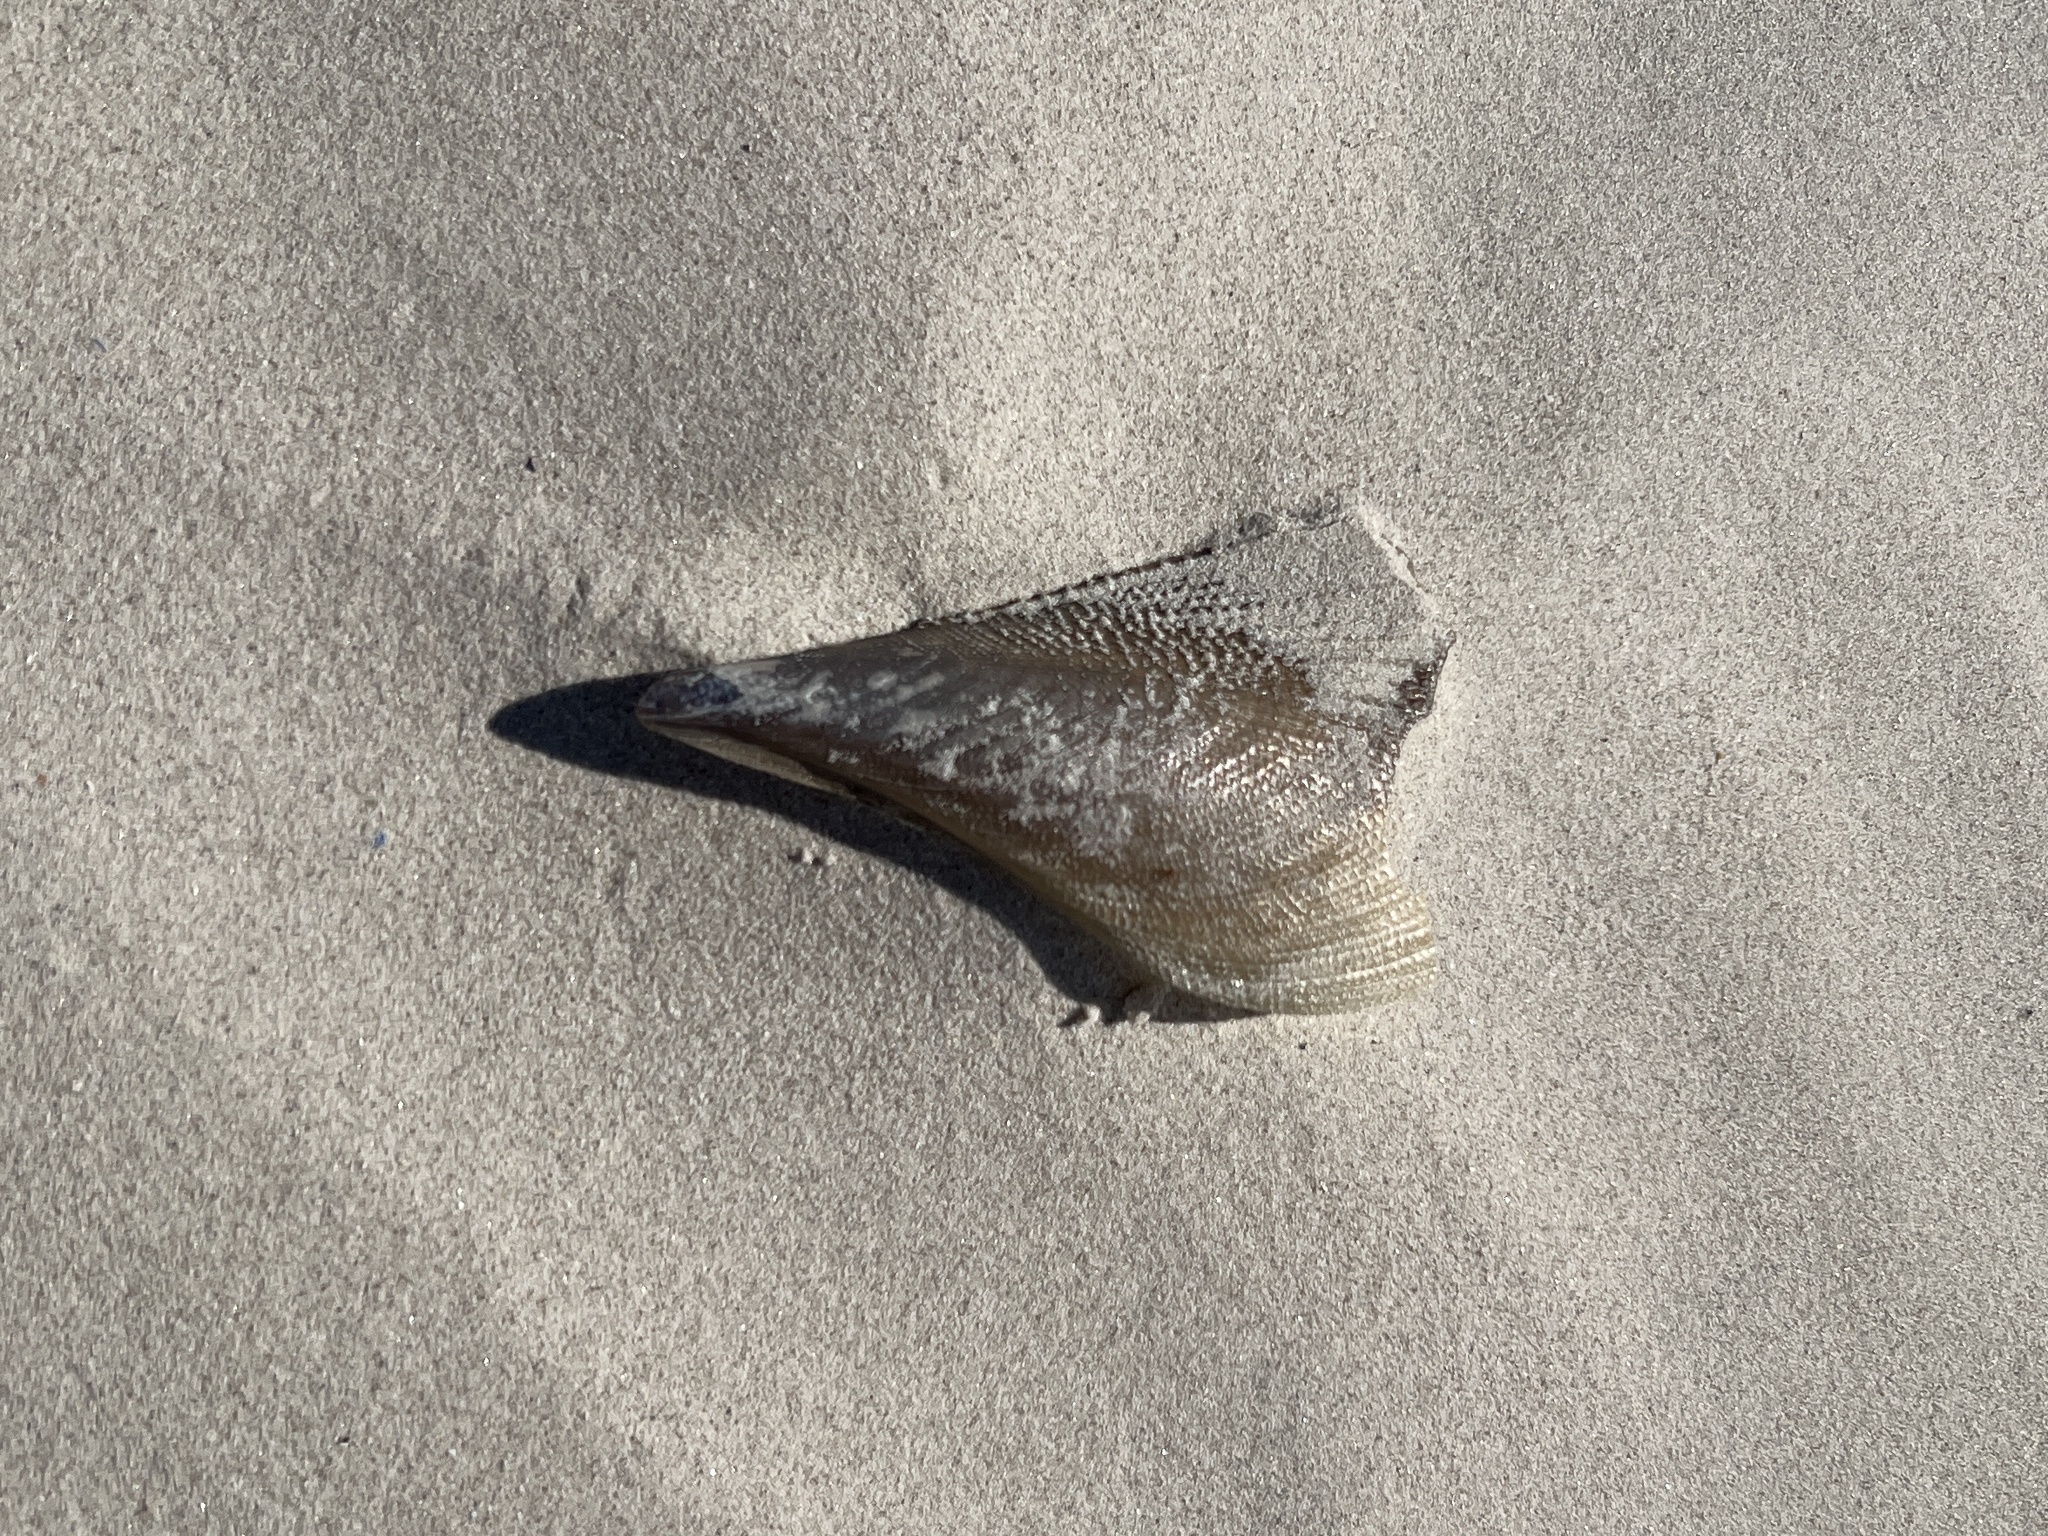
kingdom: Animalia
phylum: Mollusca
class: Bivalvia
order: Ostreida
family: Pinnidae
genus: Atrina
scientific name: Atrina serrata
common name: Saw-toothed penshell
